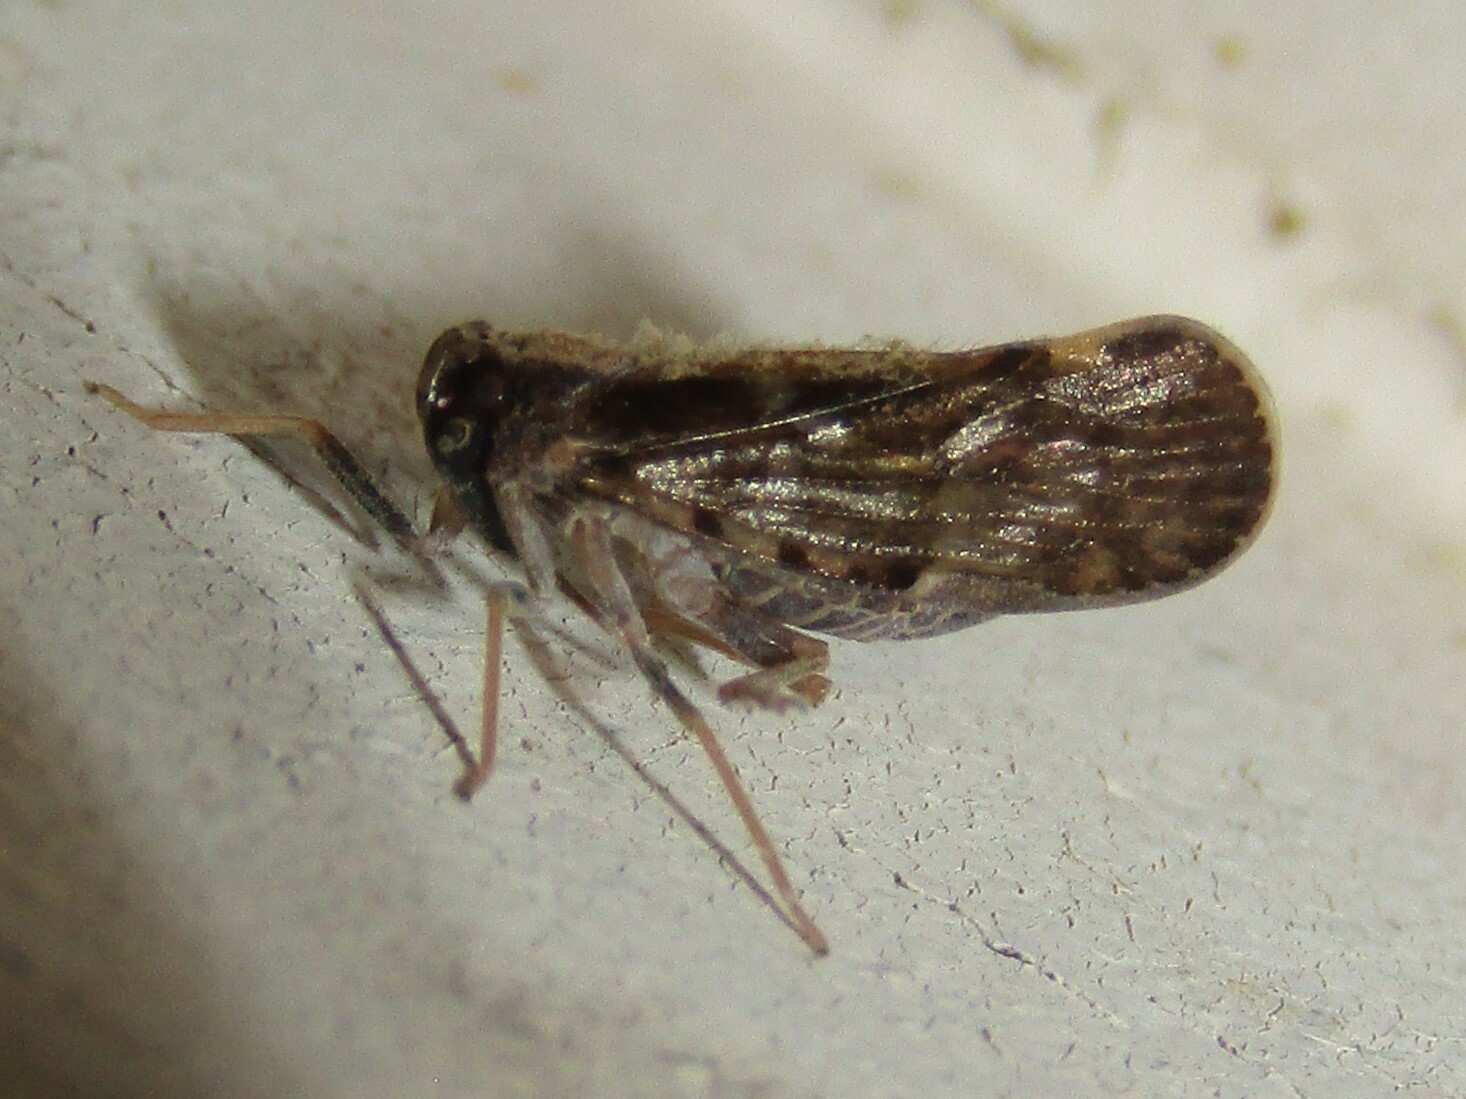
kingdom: Animalia
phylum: Arthropoda
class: Insecta
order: Hemiptera
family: Cixiidae
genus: Pintalia
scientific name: Pintalia vibex
